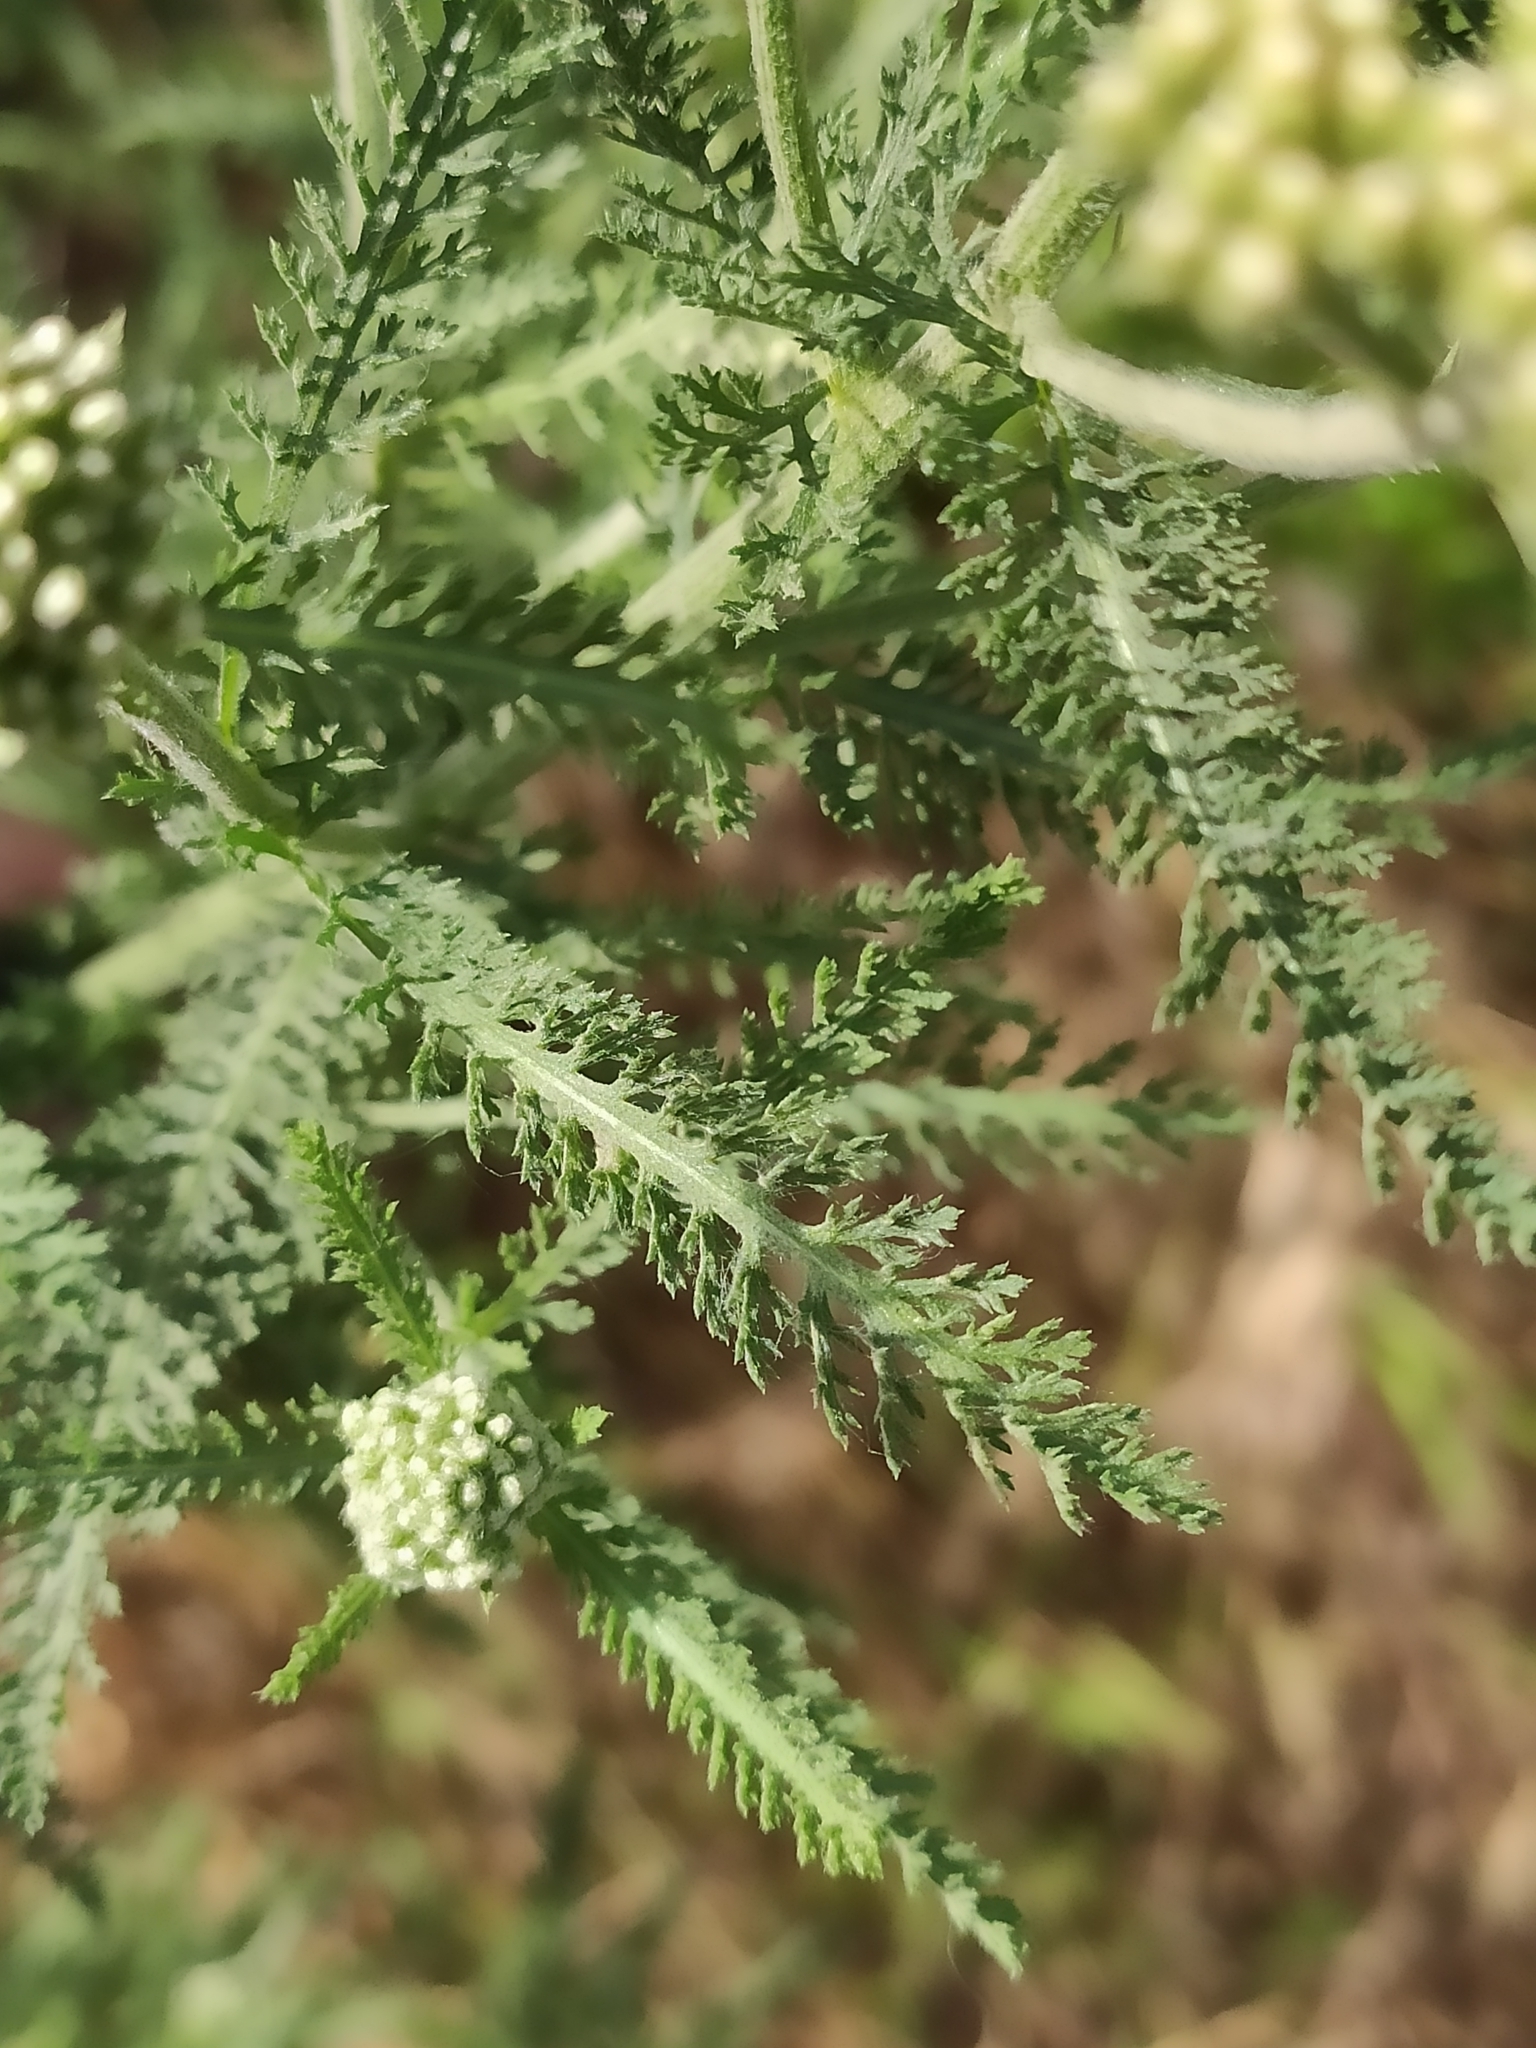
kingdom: Plantae
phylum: Tracheophyta
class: Magnoliopsida
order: Asterales
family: Asteraceae
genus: Achillea
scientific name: Achillea millefolium
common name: Yarrow
